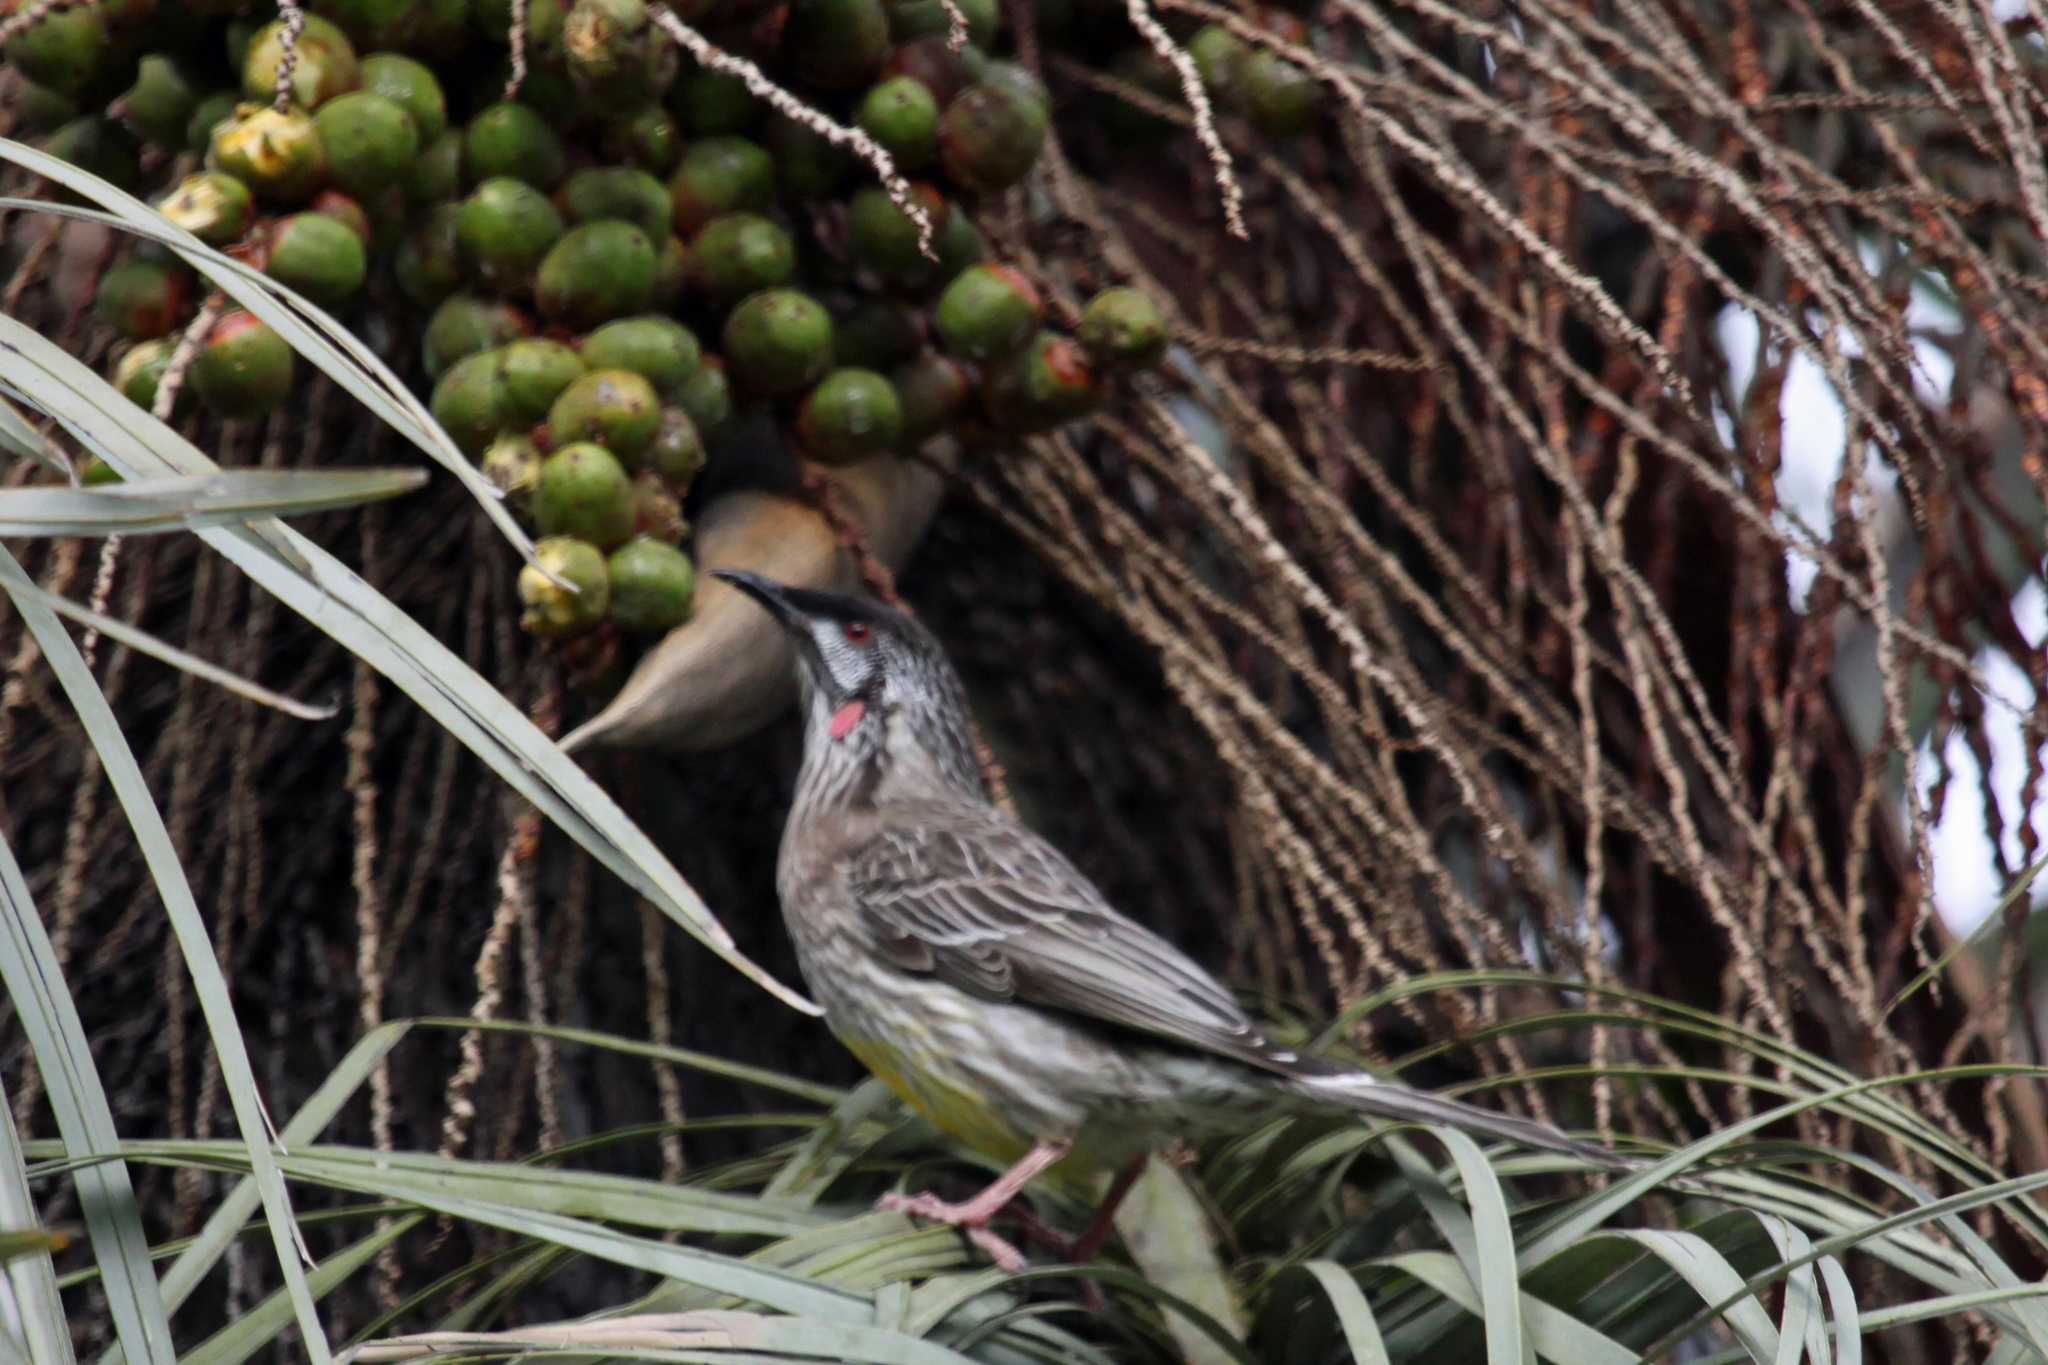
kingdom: Animalia
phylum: Chordata
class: Aves
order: Passeriformes
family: Meliphagidae
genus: Anthochaera
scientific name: Anthochaera carunculata
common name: Red wattlebird
